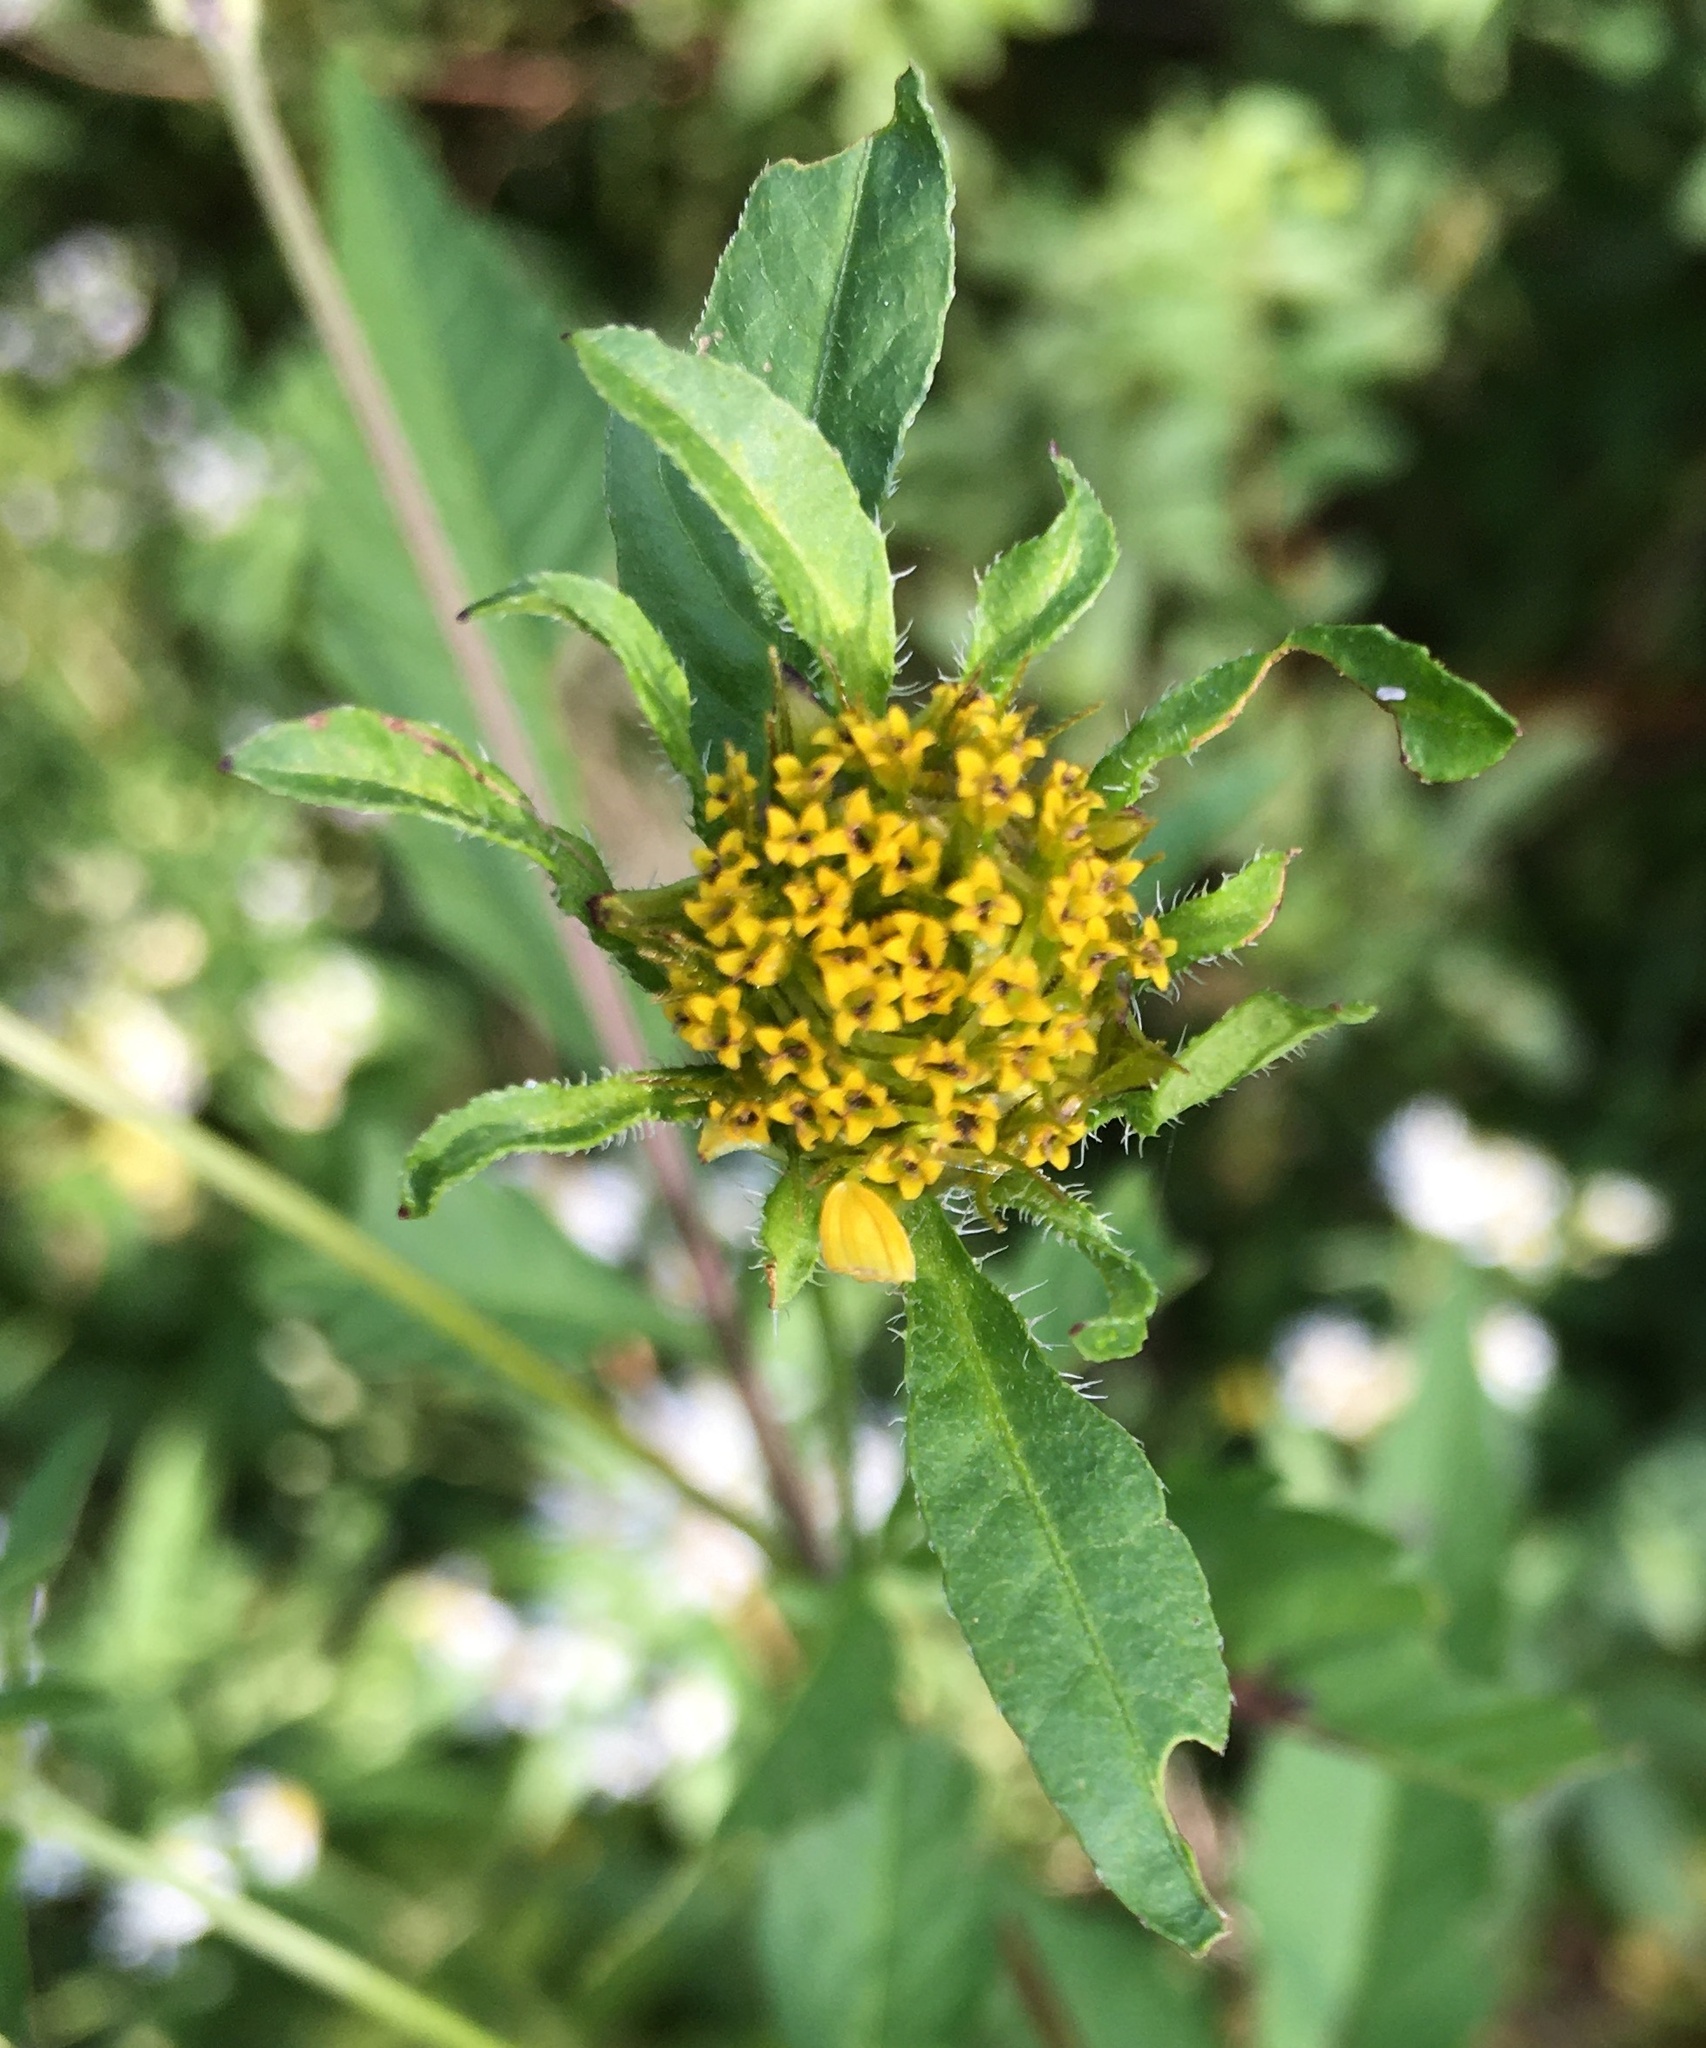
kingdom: Plantae
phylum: Tracheophyta
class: Magnoliopsida
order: Asterales
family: Asteraceae
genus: Bidens
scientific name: Bidens vulgata
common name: Tall beggarticks
